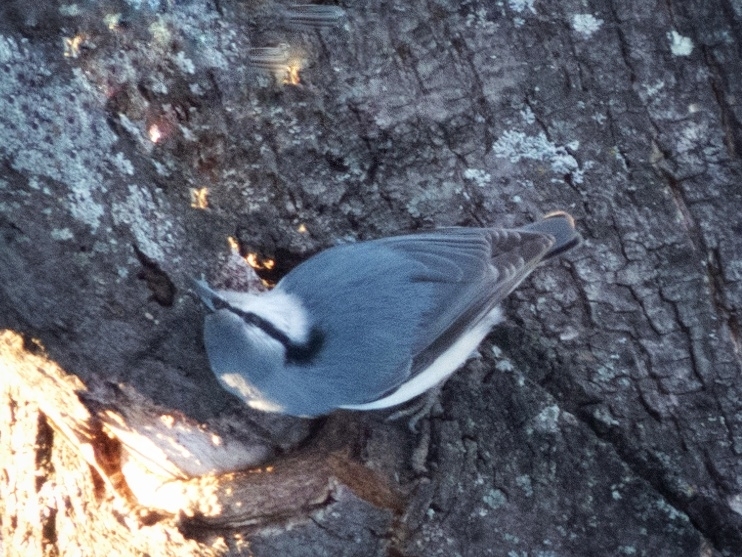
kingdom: Animalia
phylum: Chordata
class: Aves
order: Passeriformes
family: Sittidae
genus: Sitta
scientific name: Sitta europaea
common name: Eurasian nuthatch
